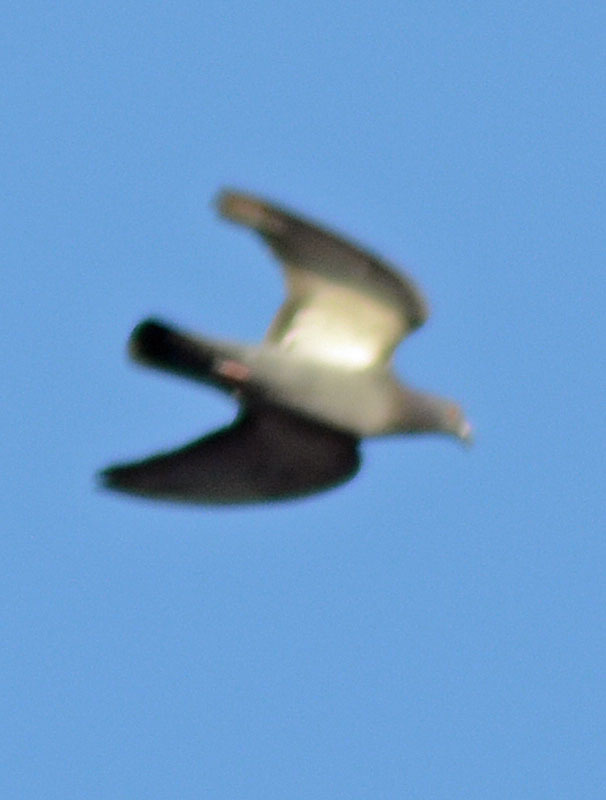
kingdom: Animalia
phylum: Chordata
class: Aves
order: Columbiformes
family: Columbidae
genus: Columba
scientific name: Columba livia
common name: Rock pigeon
